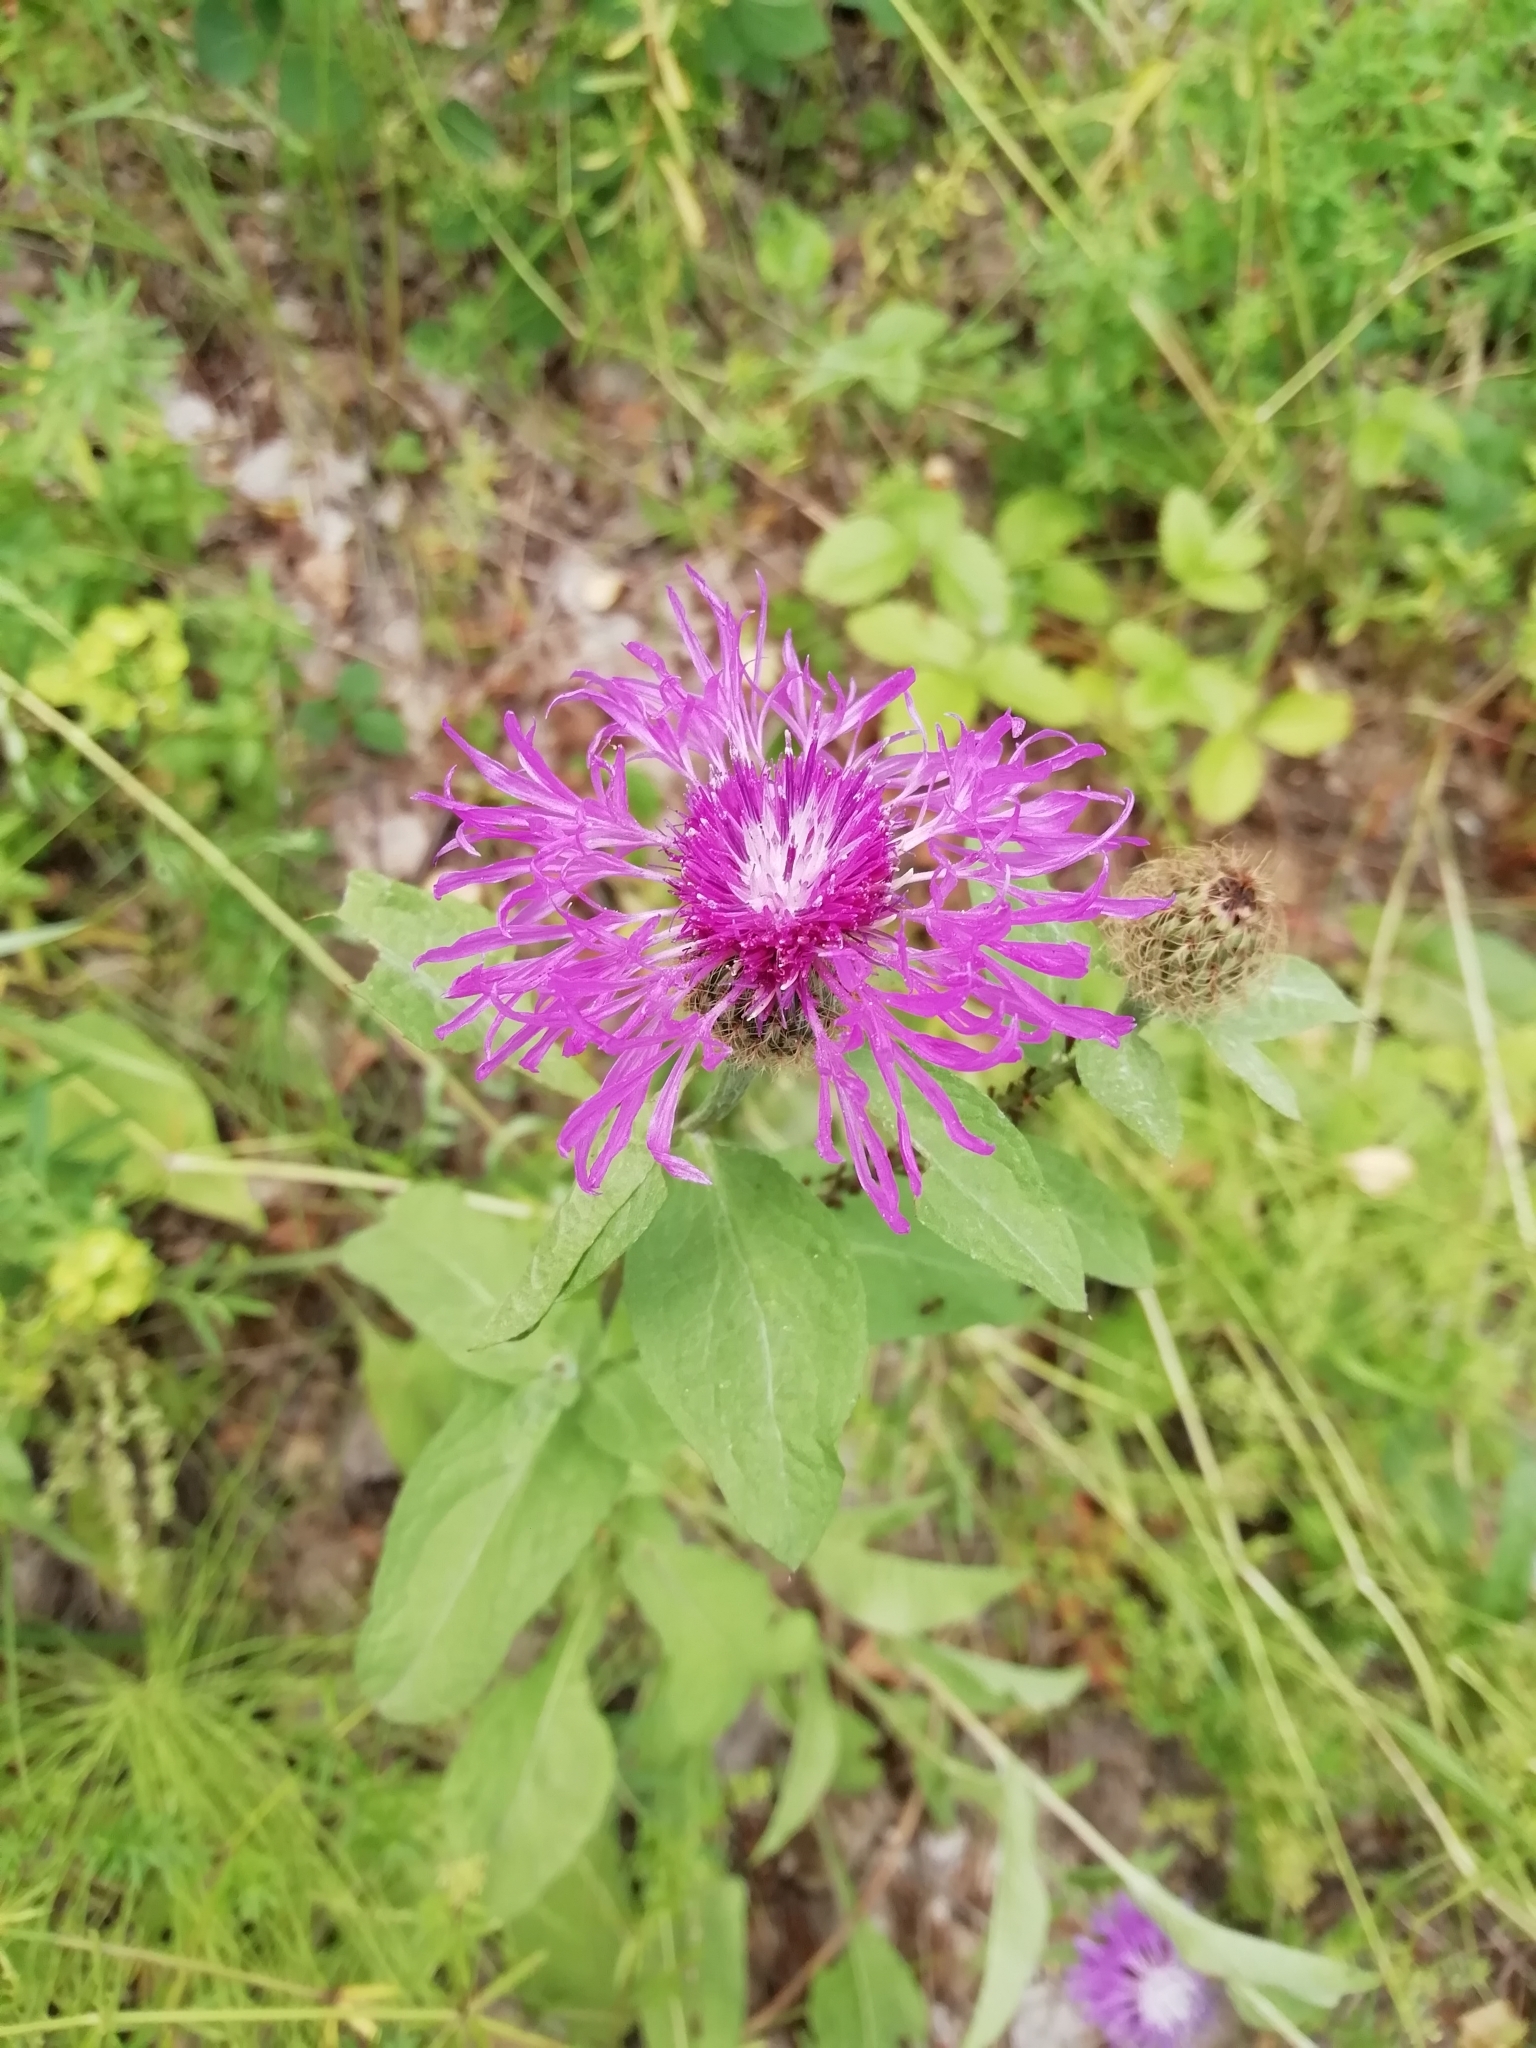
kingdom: Plantae
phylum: Tracheophyta
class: Magnoliopsida
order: Asterales
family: Asteraceae
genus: Centaurea
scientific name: Centaurea phrygia
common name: Wig knapweed
